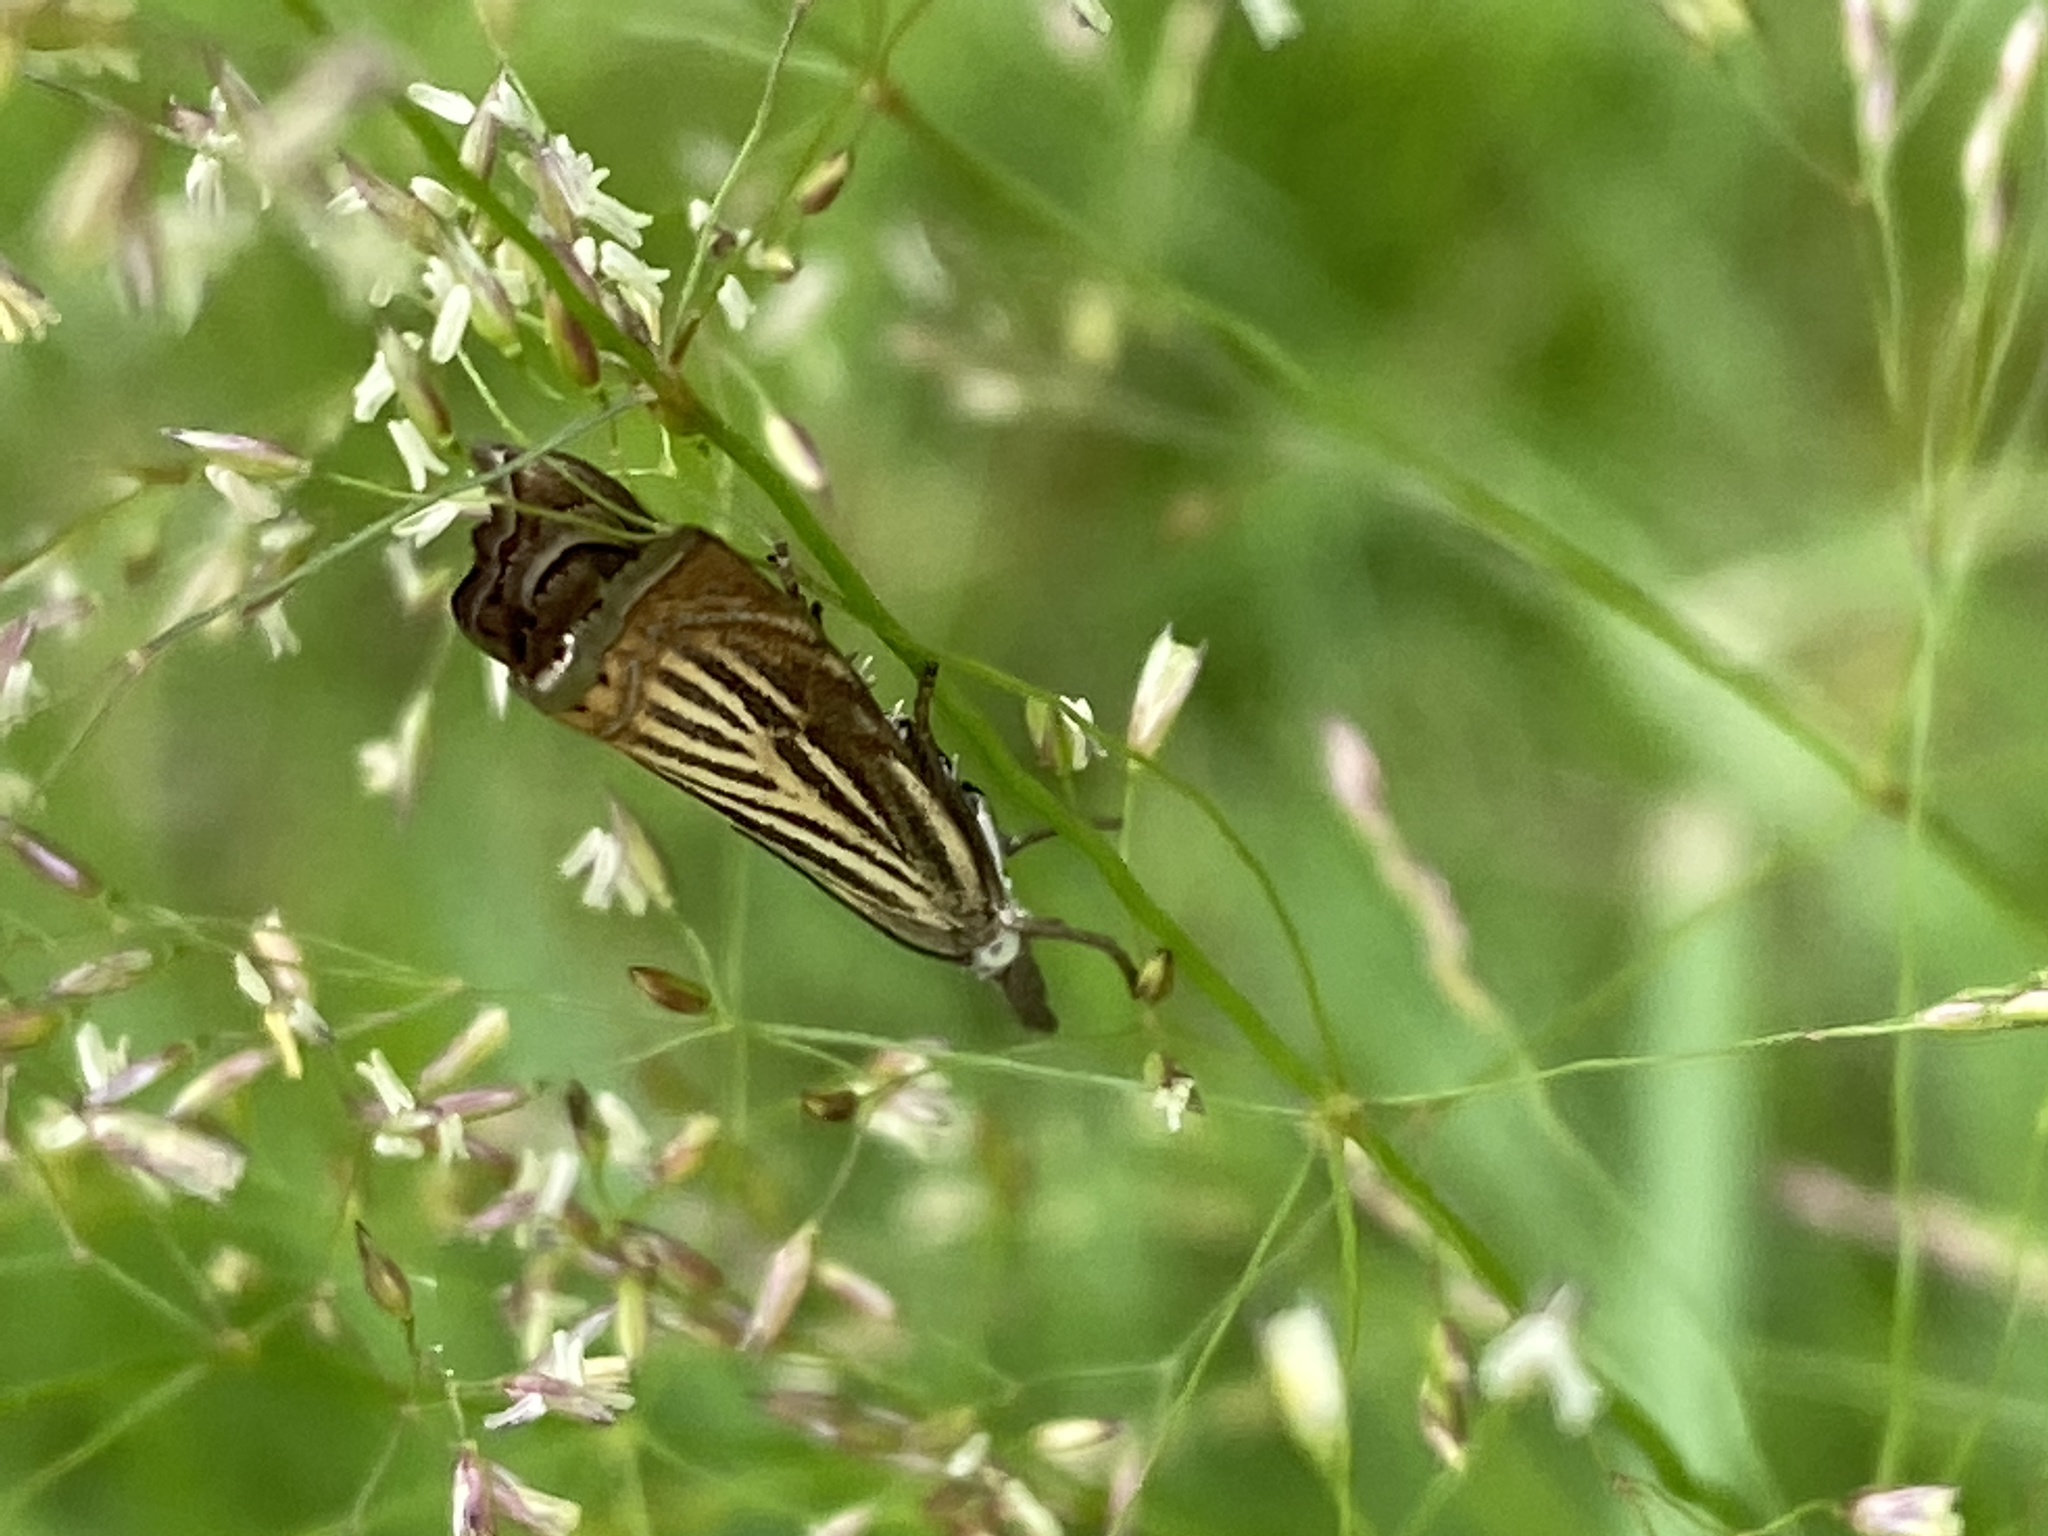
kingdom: Animalia
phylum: Arthropoda
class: Insecta
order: Lepidoptera
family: Crambidae
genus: Chrysoteuchia
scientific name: Chrysoteuchia culmella
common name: Garden grass-veneer
